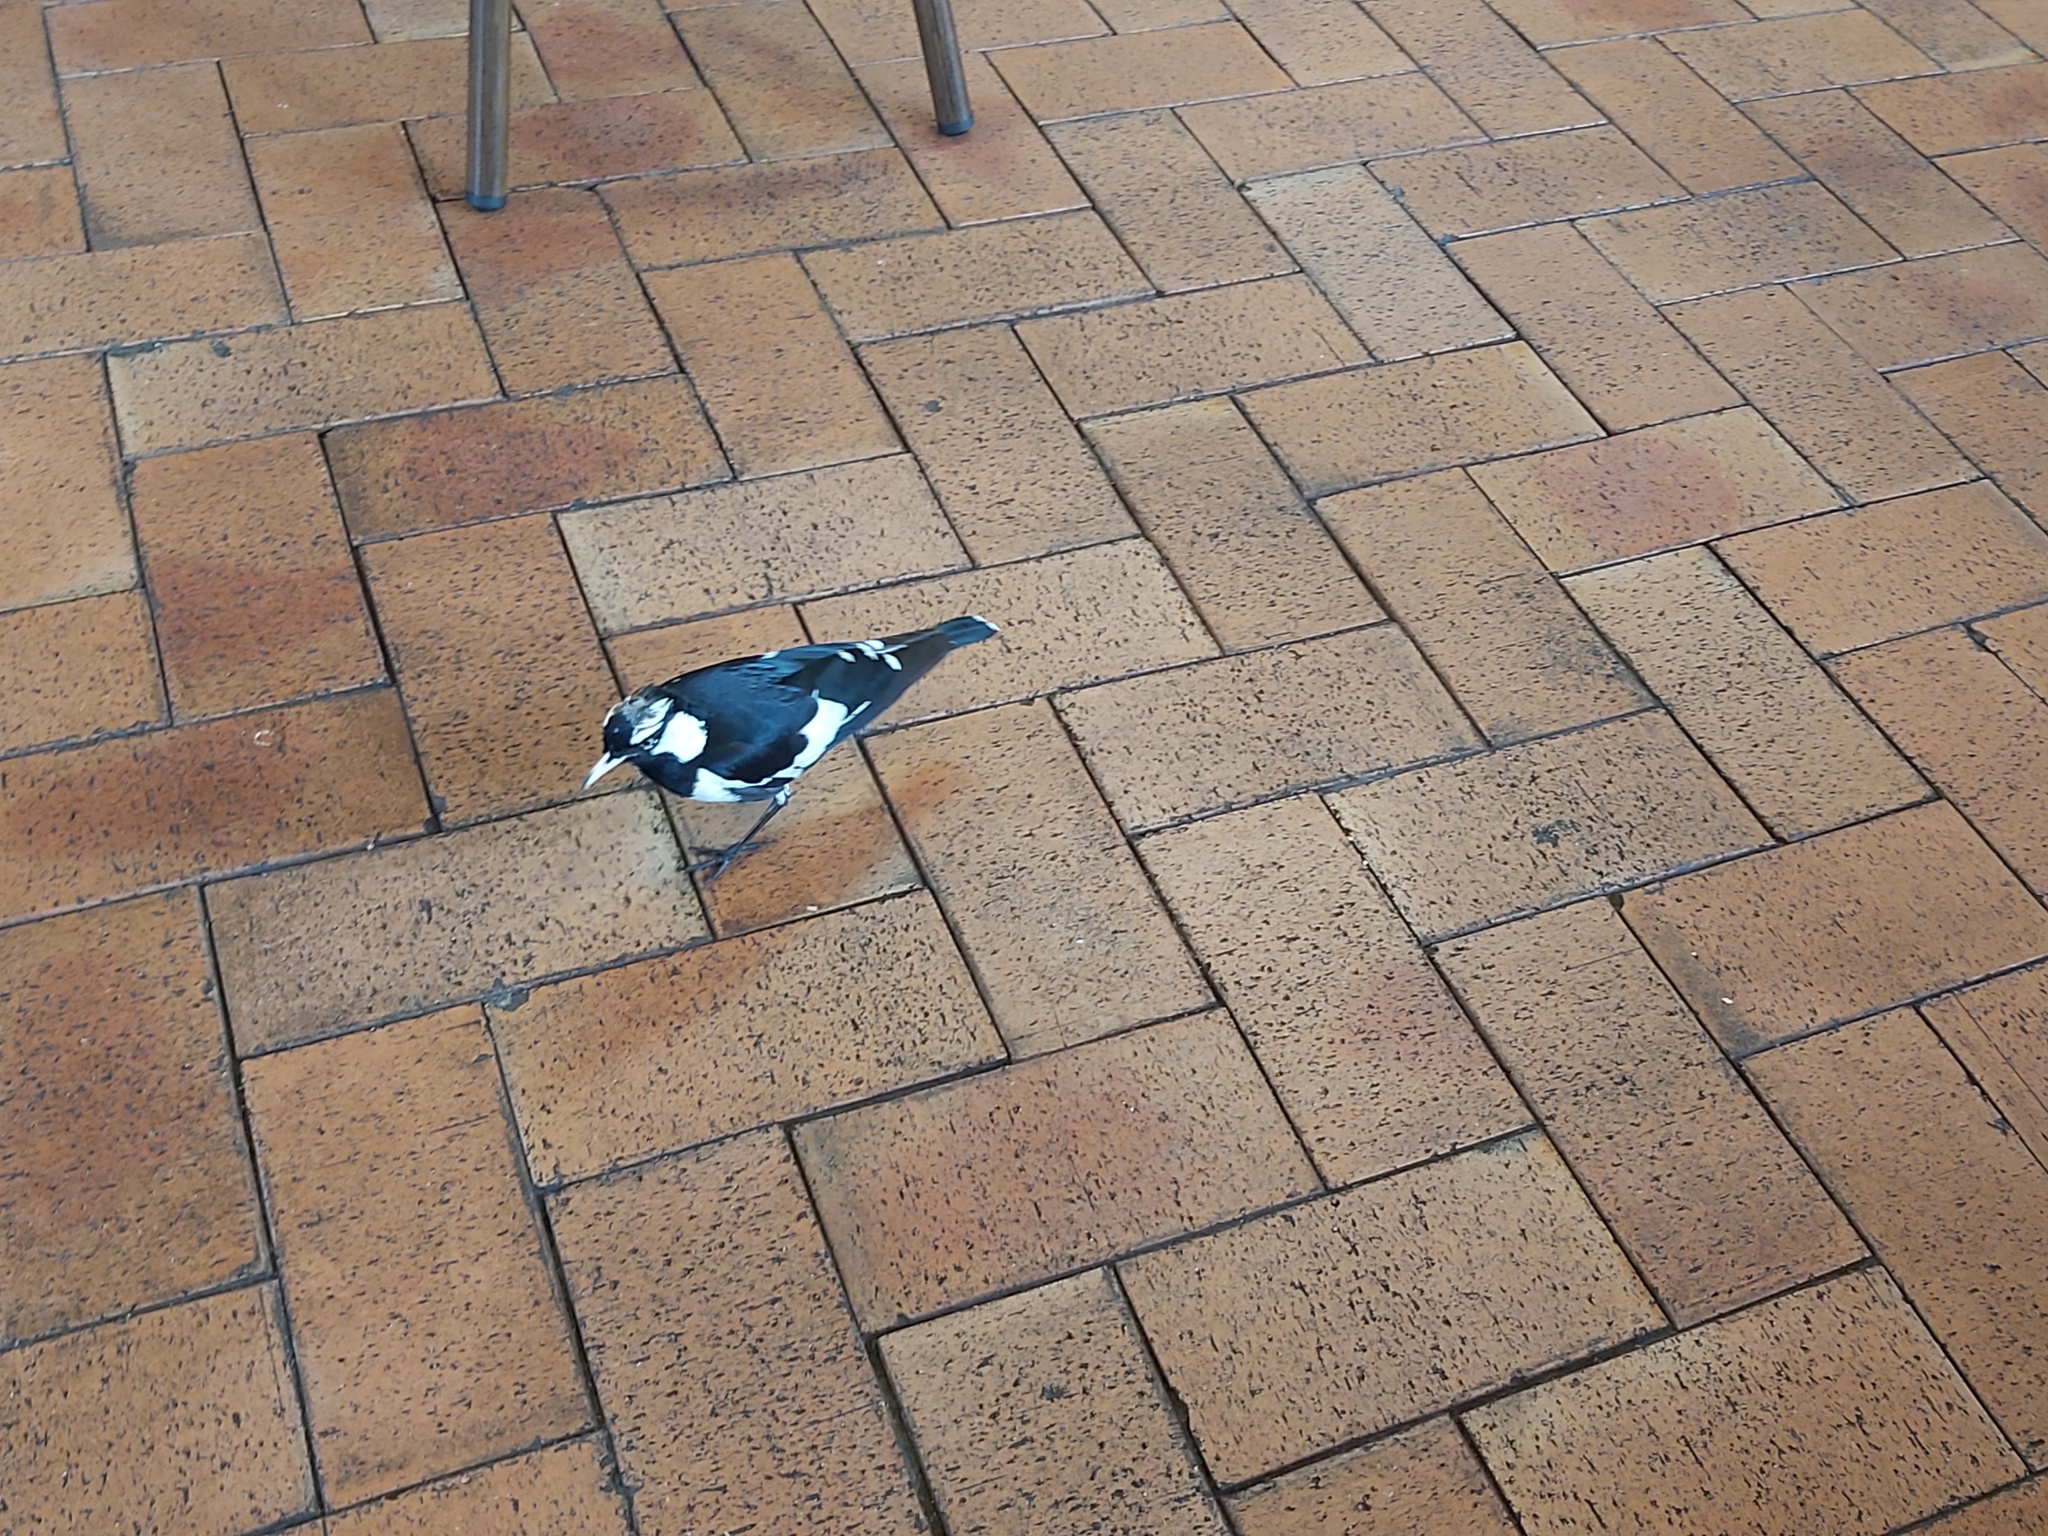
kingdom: Animalia
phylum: Chordata
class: Aves
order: Passeriformes
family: Monarchidae
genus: Grallina
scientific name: Grallina cyanoleuca
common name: Magpie-lark
